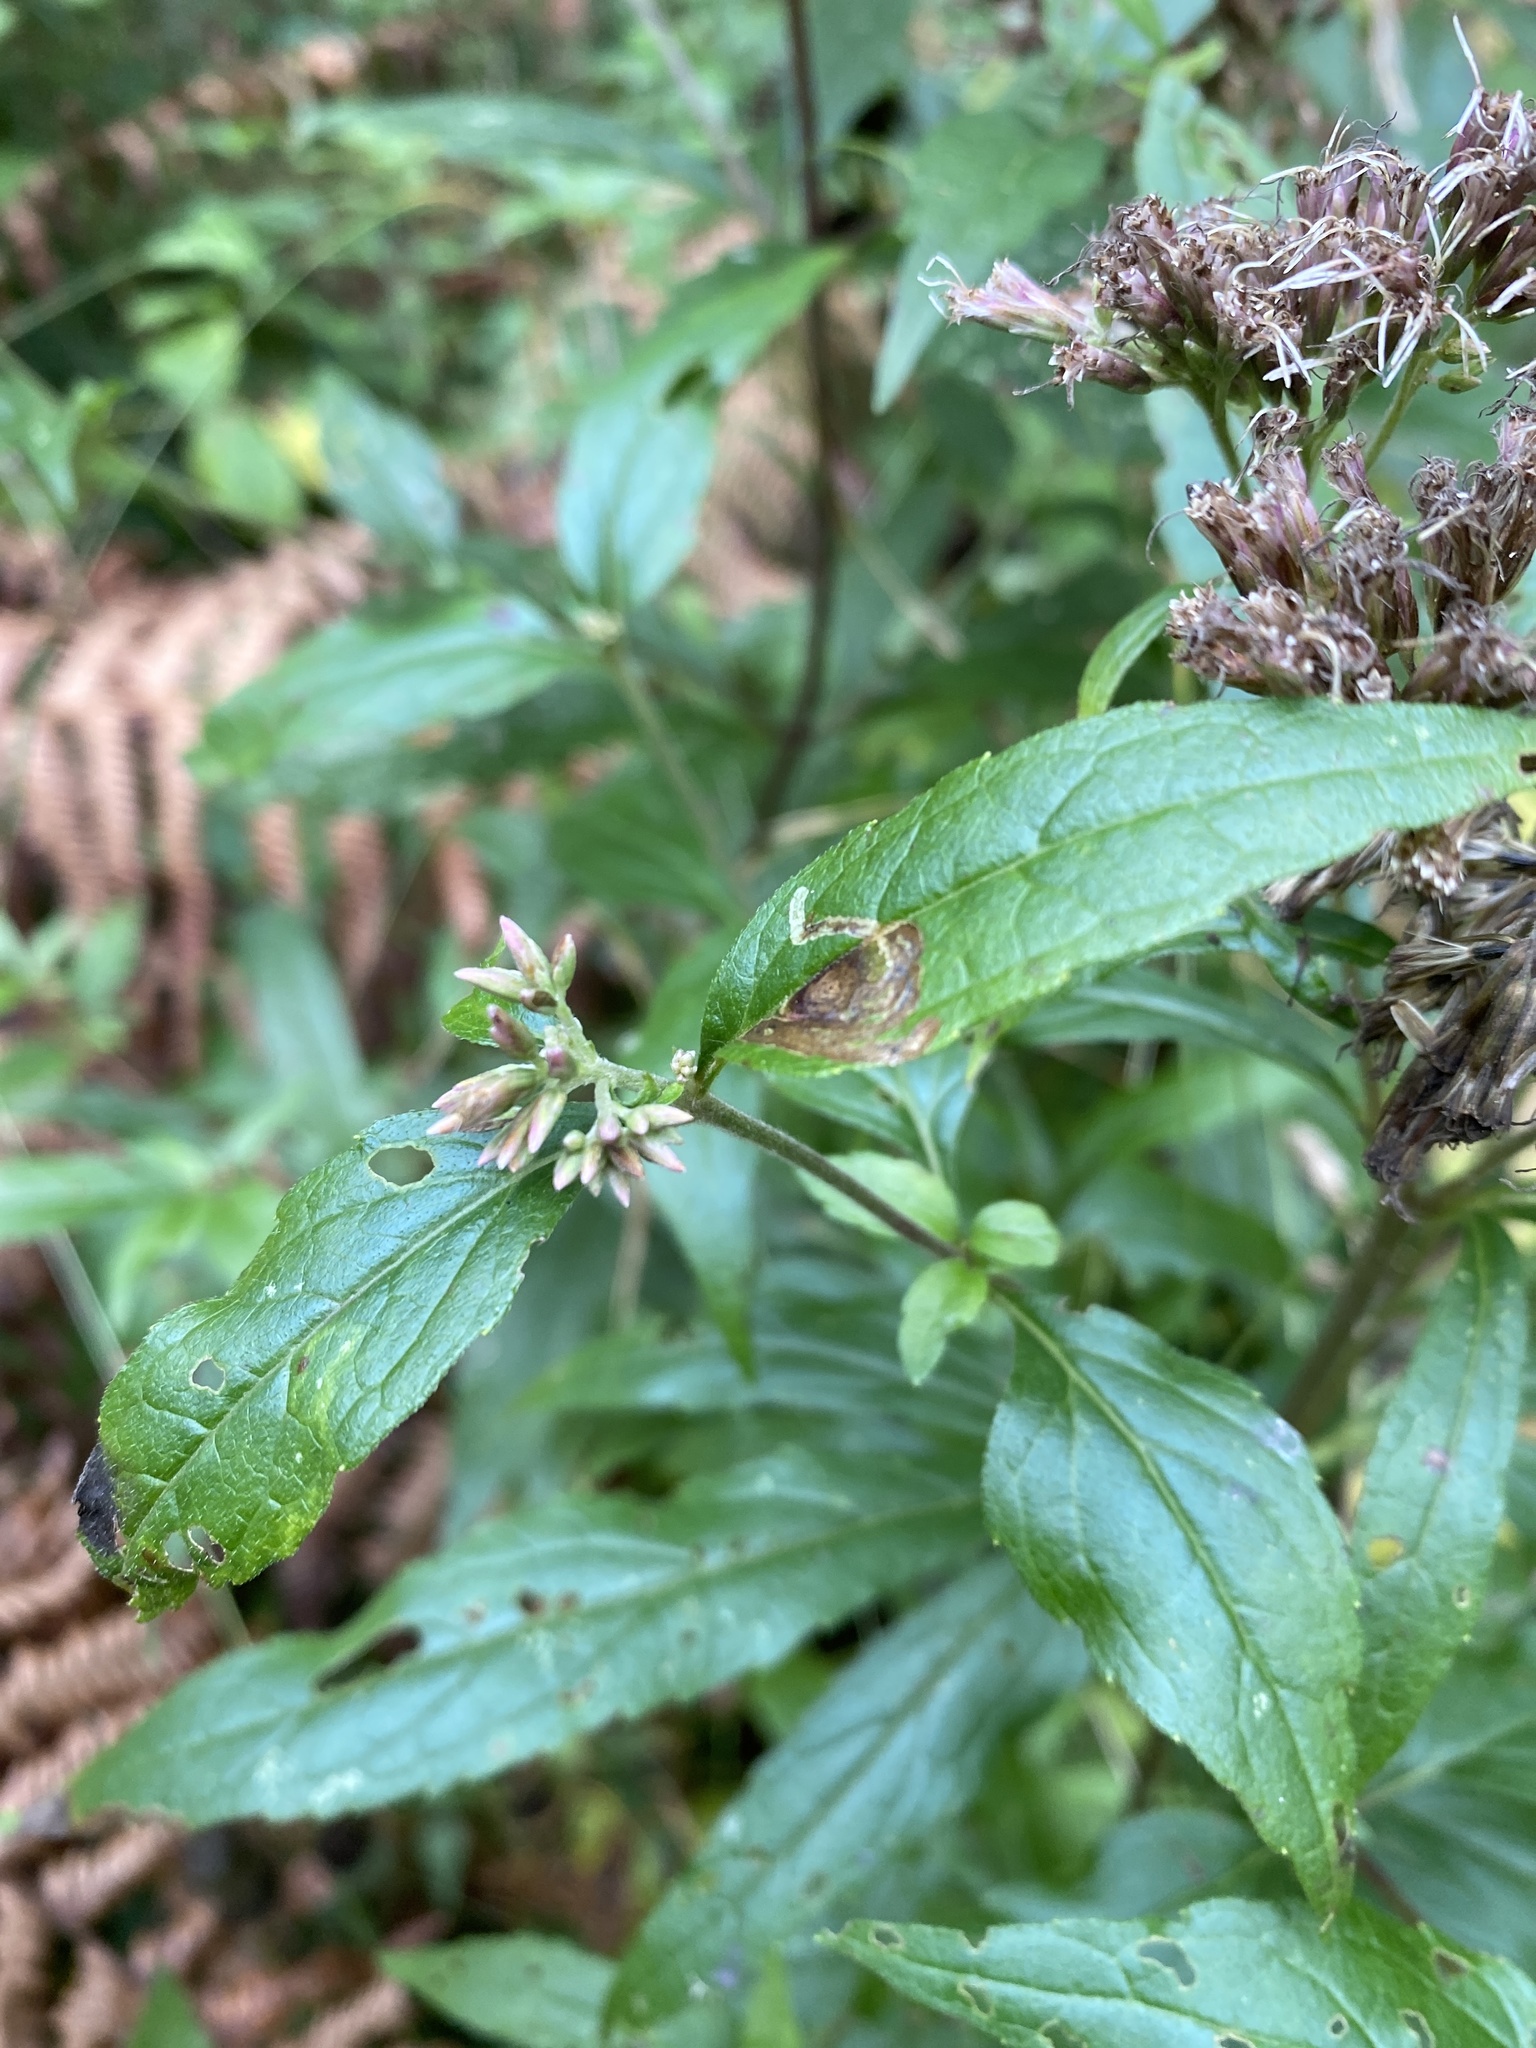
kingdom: Plantae
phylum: Tracheophyta
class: Magnoliopsida
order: Asterales
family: Asteraceae
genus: Eupatorium
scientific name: Eupatorium cannabinum
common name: Hemp-agrimony
